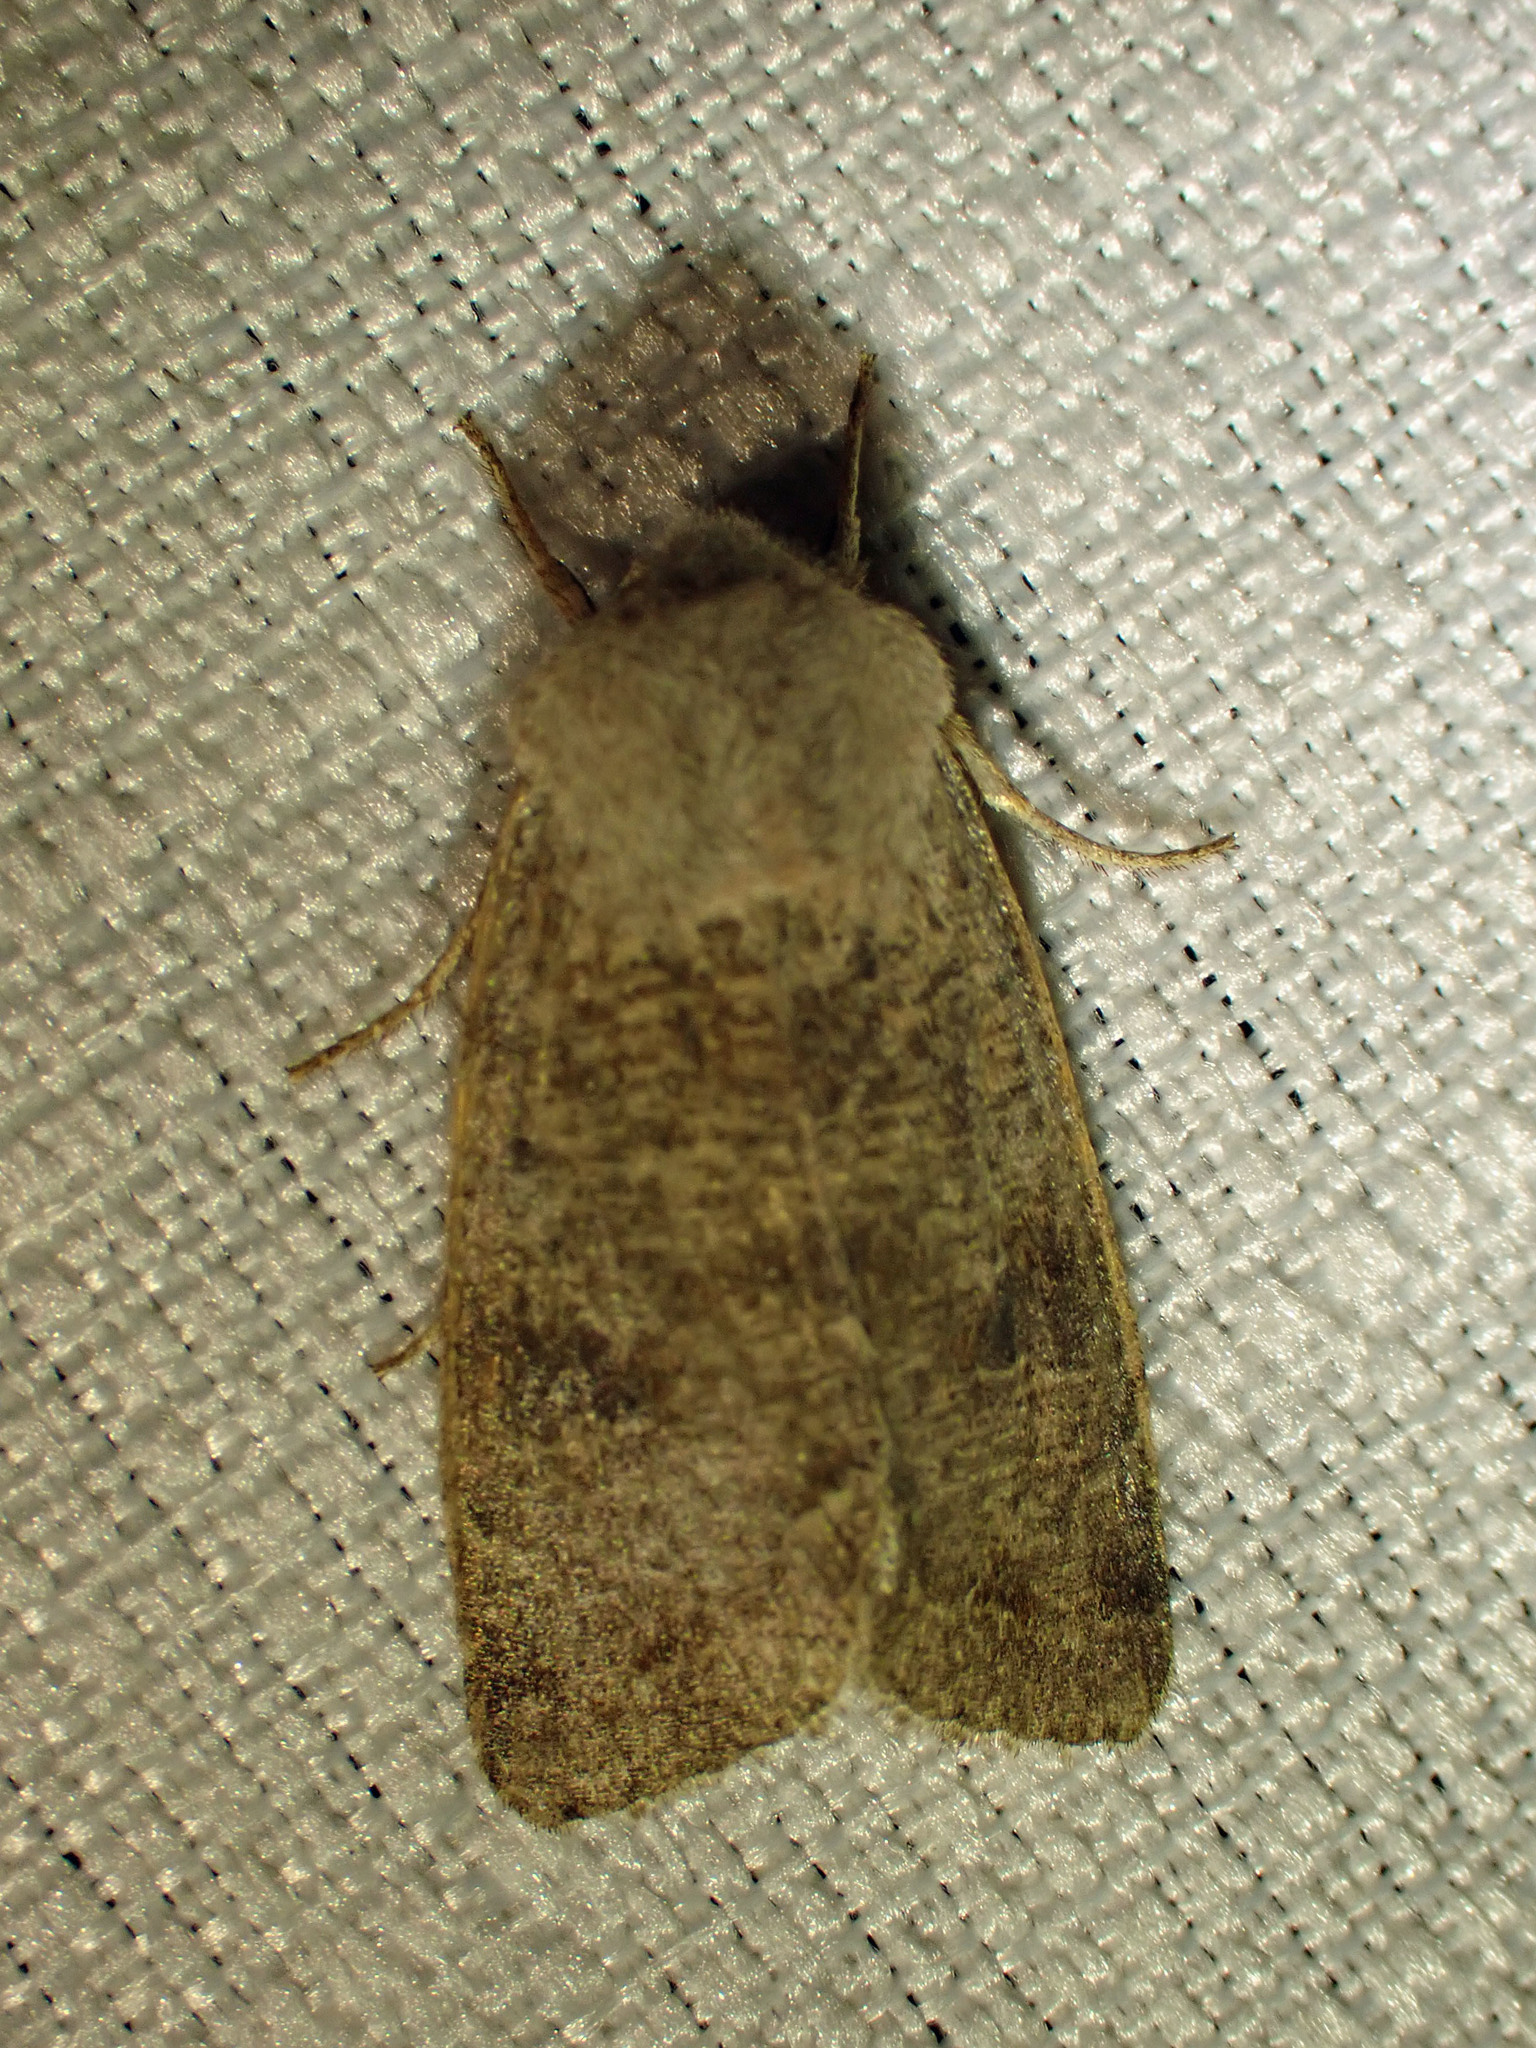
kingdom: Animalia
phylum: Arthropoda
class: Insecta
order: Lepidoptera
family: Noctuidae
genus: Orthosia
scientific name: Orthosia hibisci
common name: Green fruitworm
